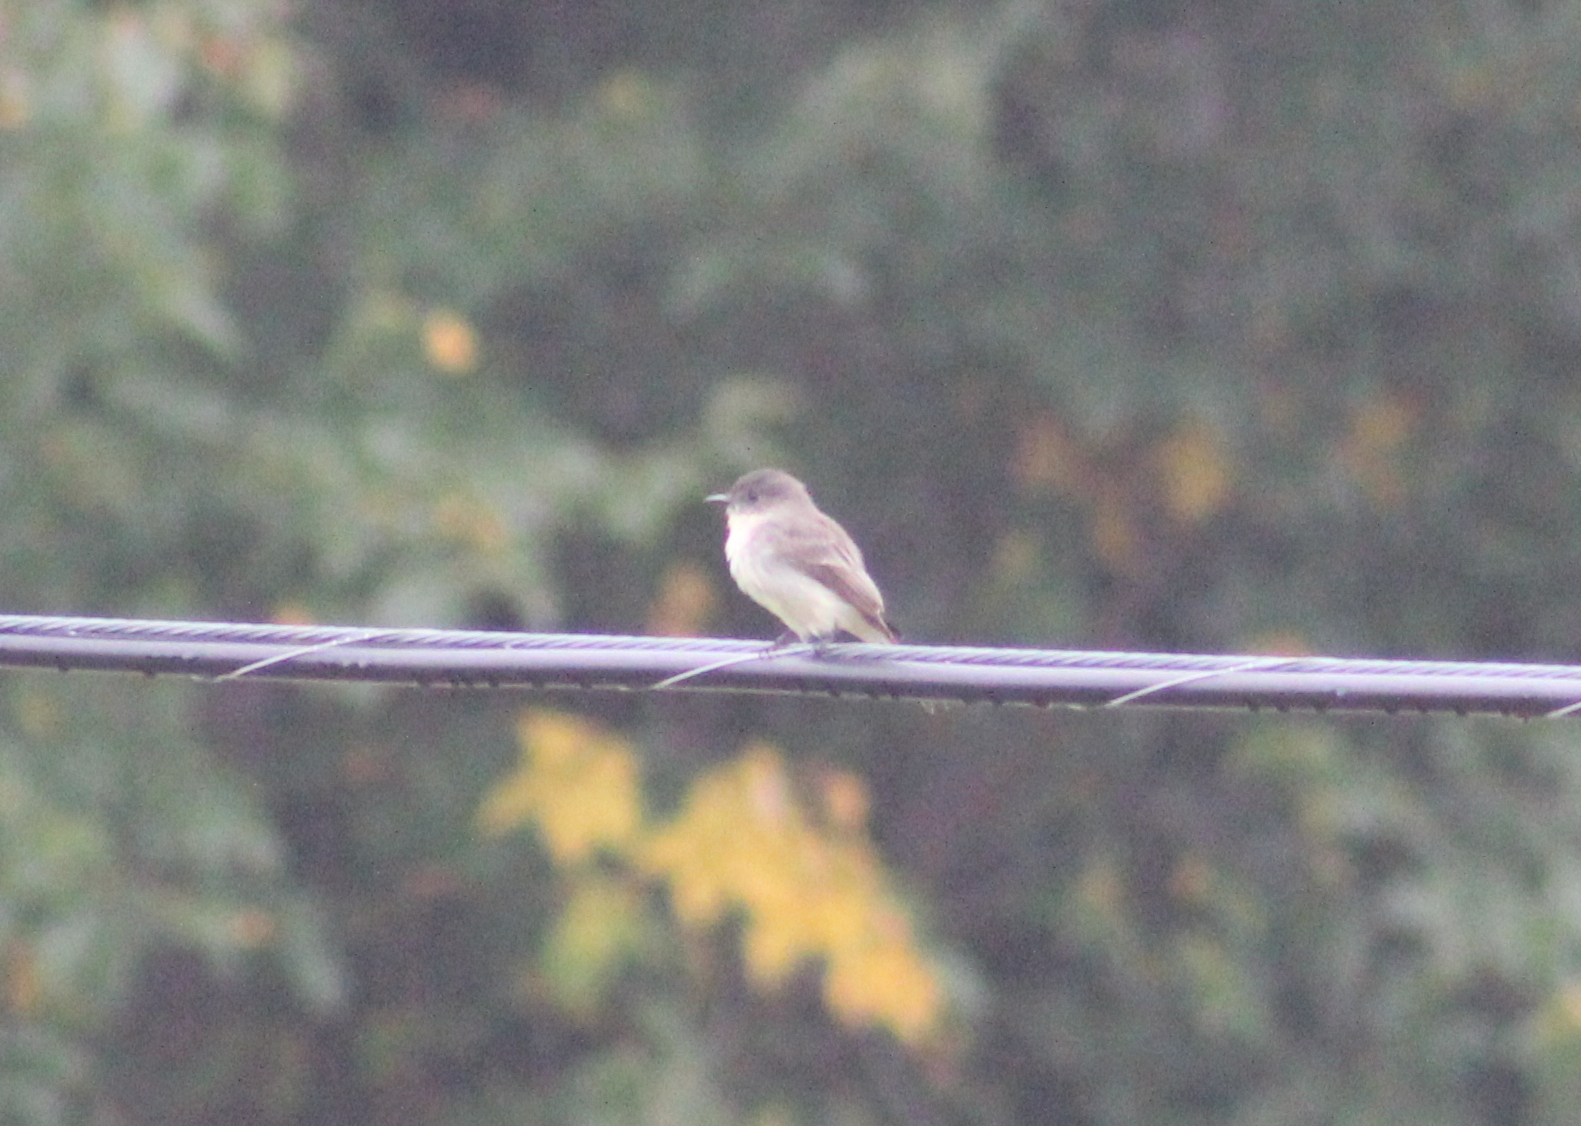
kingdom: Animalia
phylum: Chordata
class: Aves
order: Passeriformes
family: Tyrannidae
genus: Sayornis
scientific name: Sayornis phoebe
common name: Eastern phoebe
